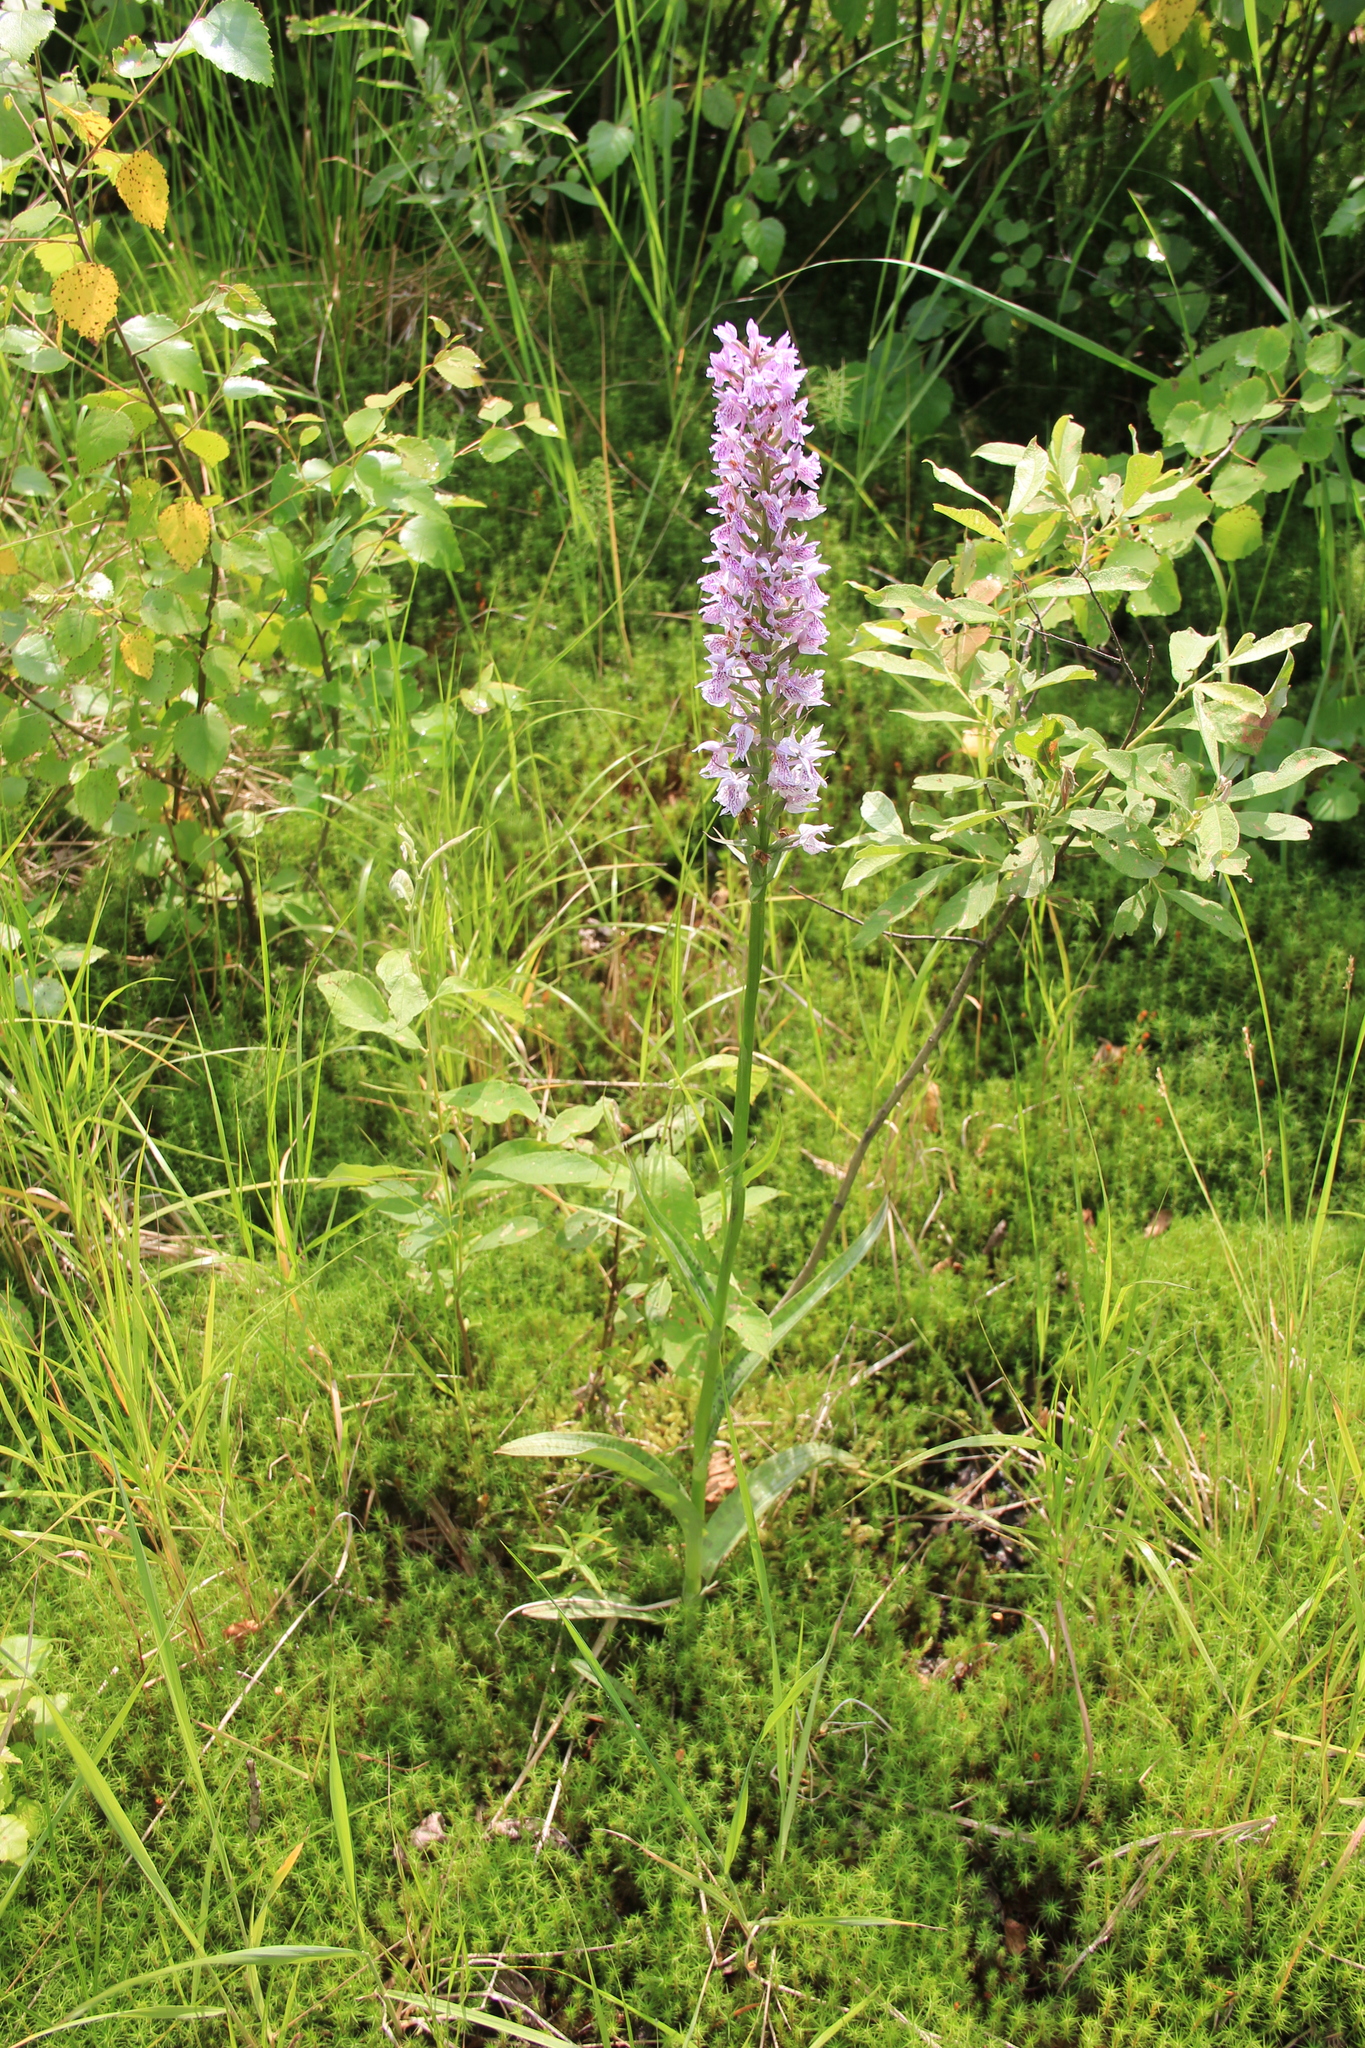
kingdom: Plantae
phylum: Tracheophyta
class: Liliopsida
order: Asparagales
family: Orchidaceae
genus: Dactylorhiza
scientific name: Dactylorhiza maculata
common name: Heath spotted-orchid
